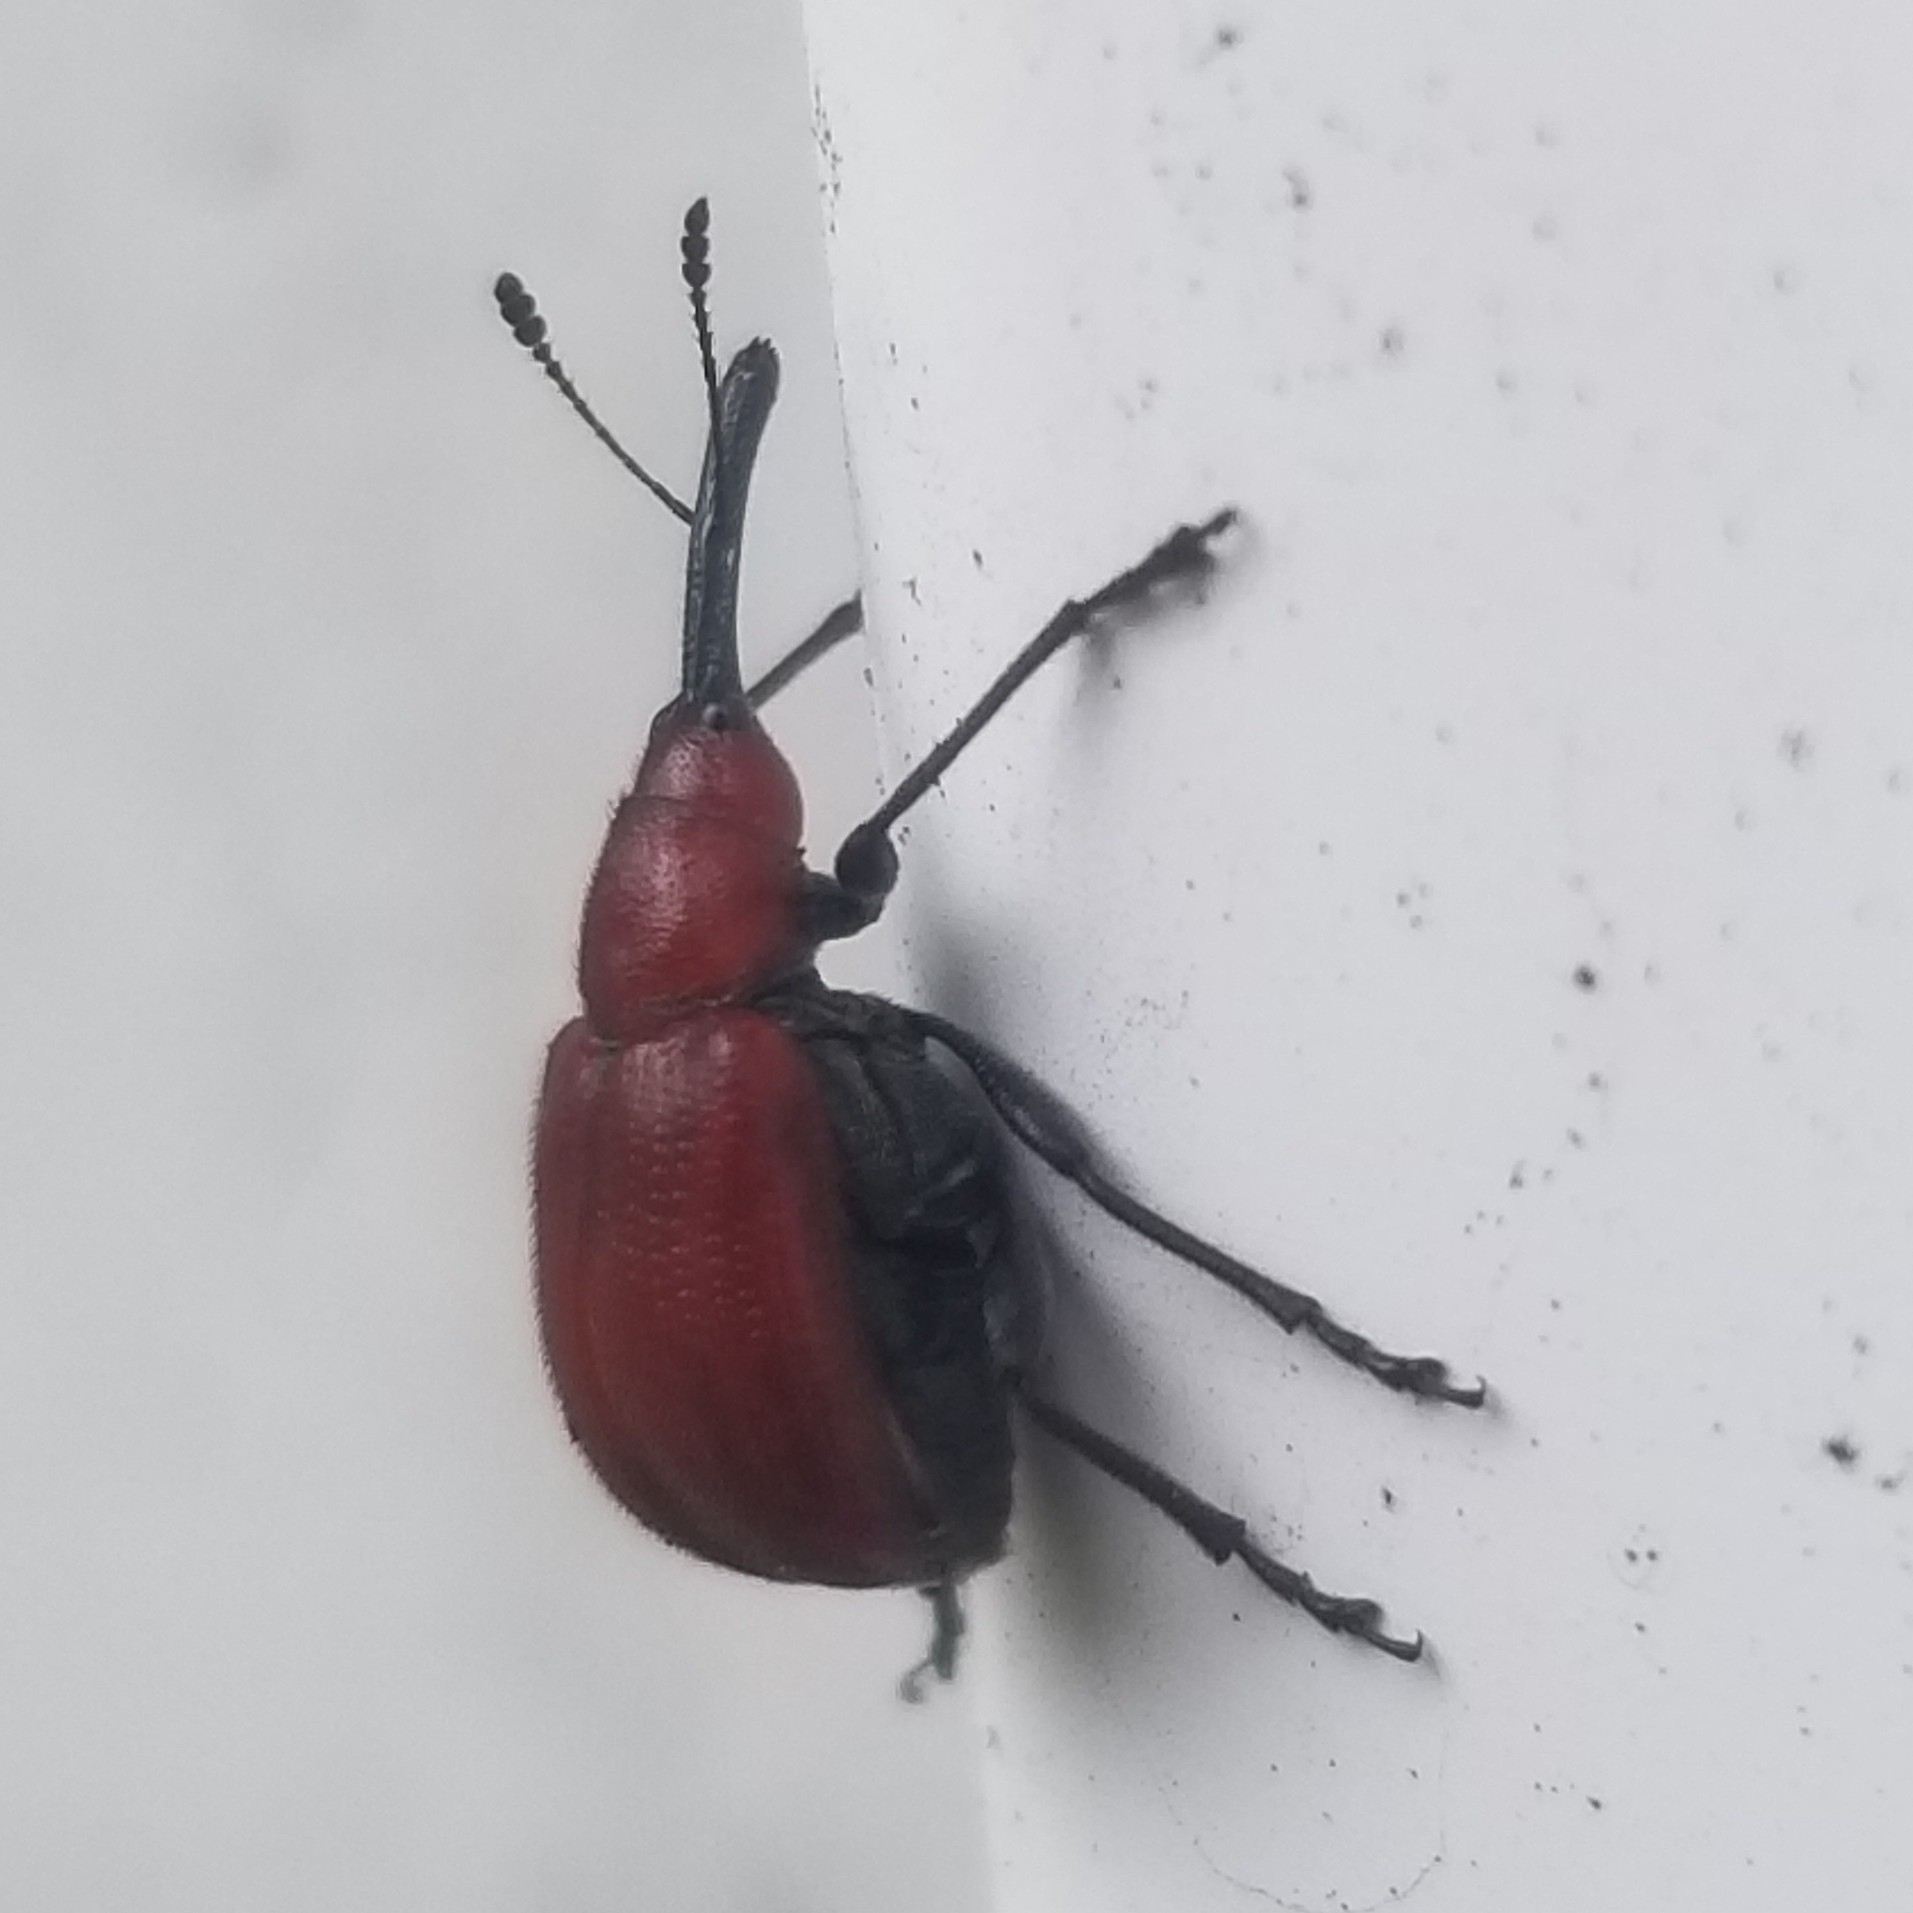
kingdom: Animalia
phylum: Arthropoda
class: Insecta
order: Coleoptera
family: Attelabidae
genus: Merhynchites
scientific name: Merhynchites bicolor
